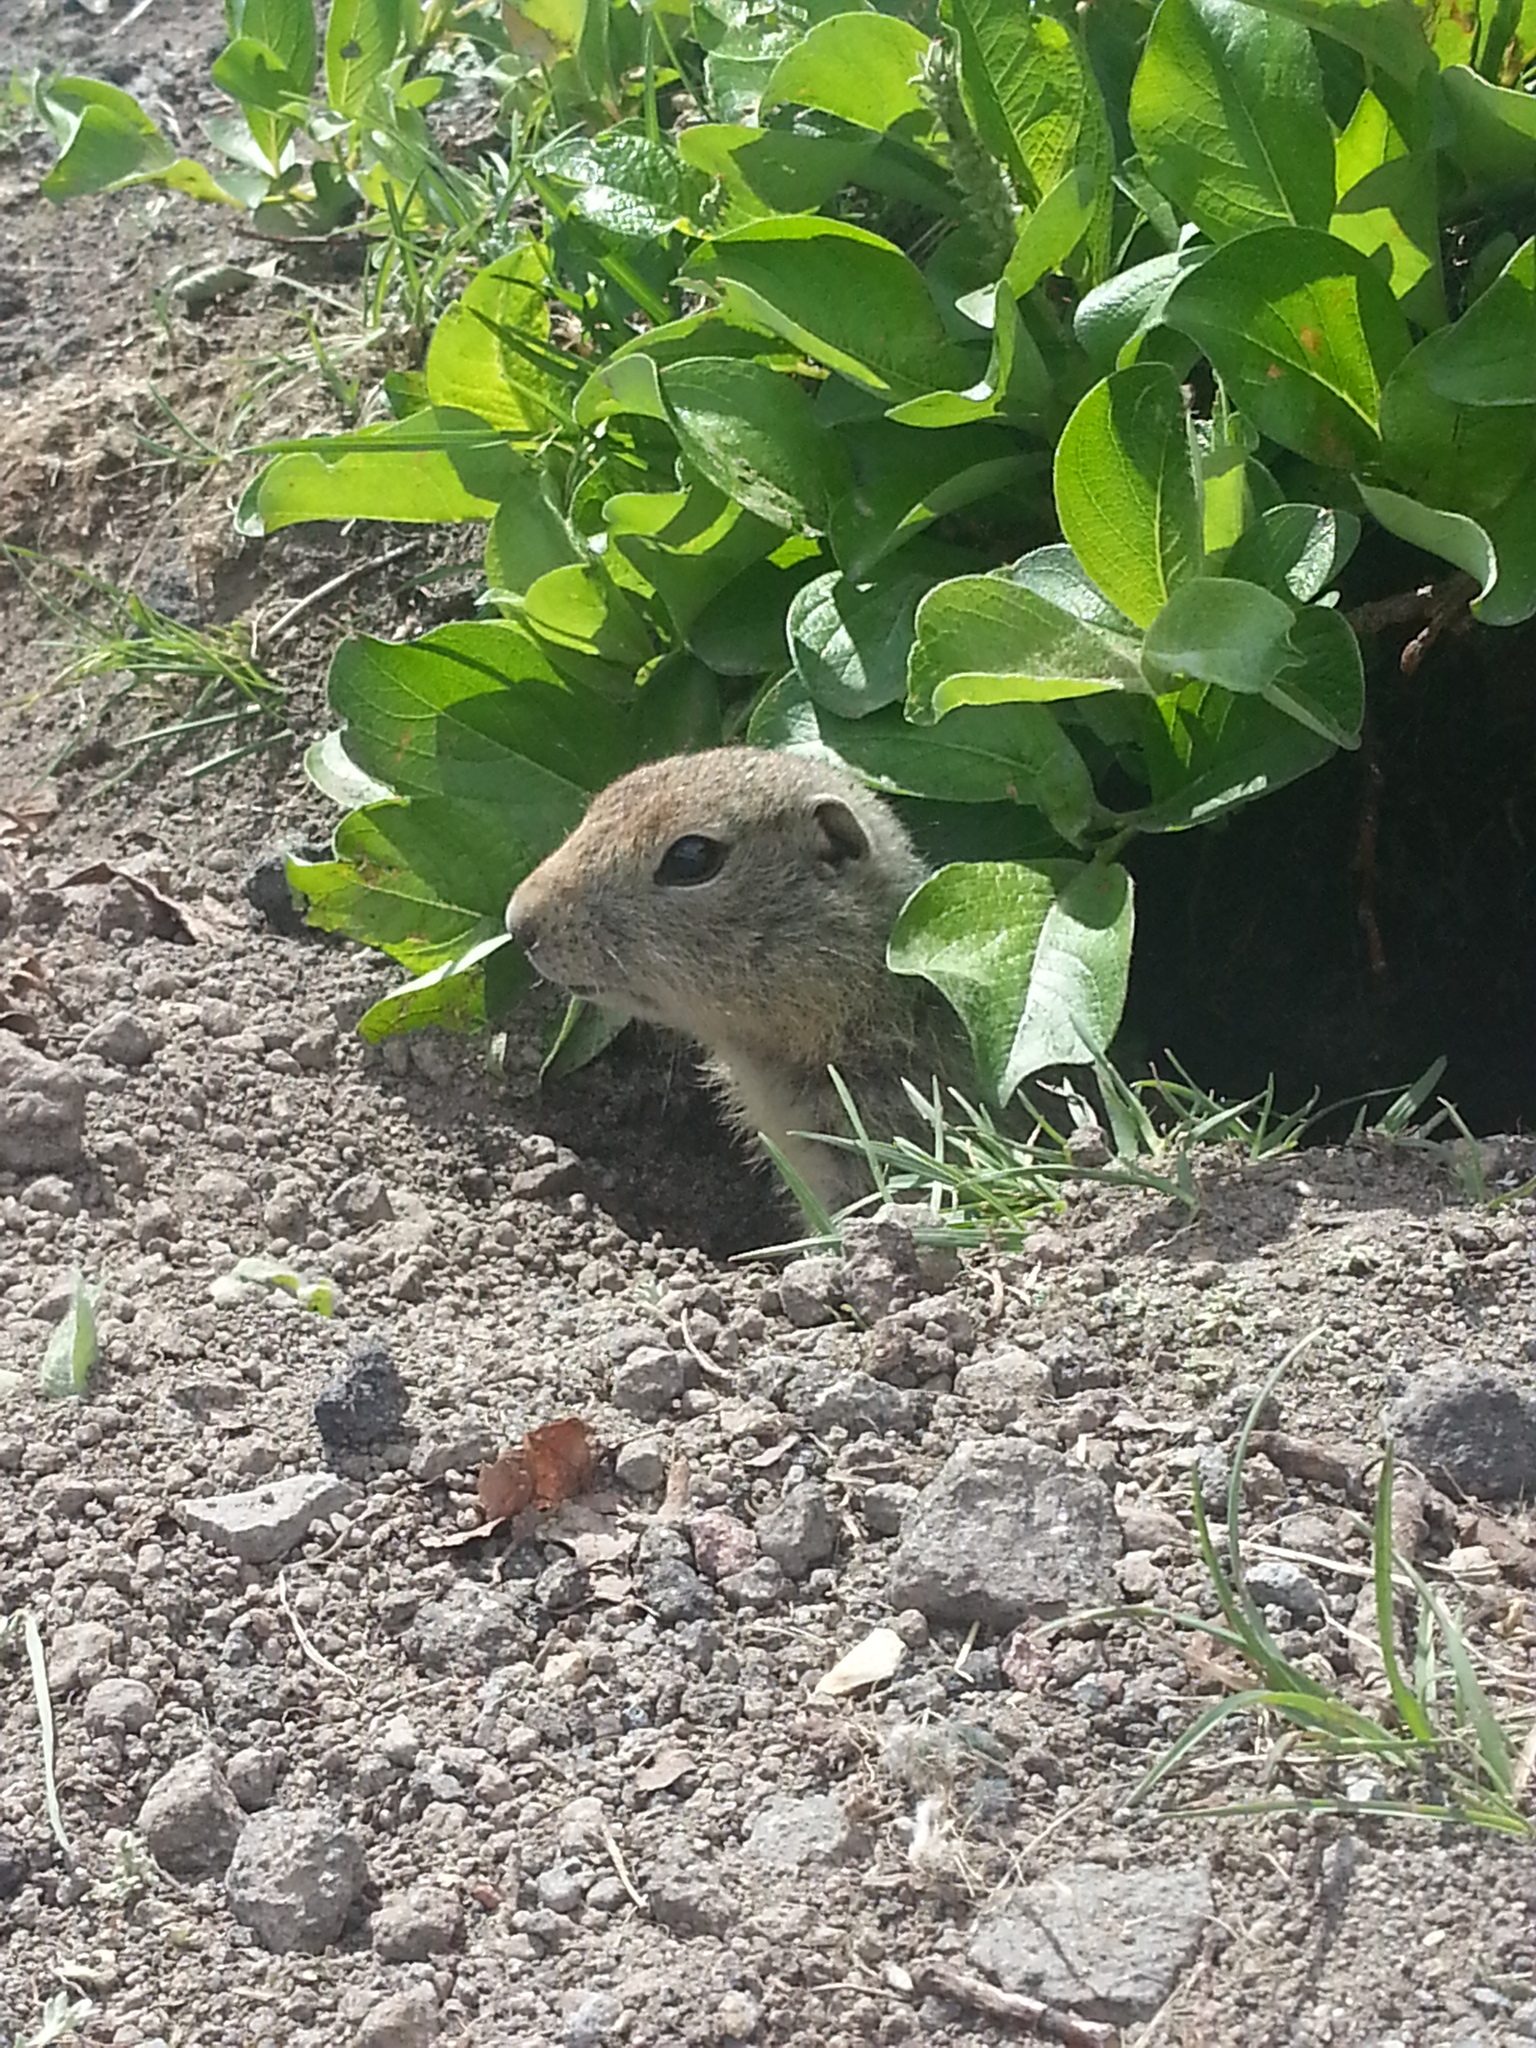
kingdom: Animalia
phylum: Chordata
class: Mammalia
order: Rodentia
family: Sciuridae
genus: Urocitellus
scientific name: Urocitellus parryii
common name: Arctic ground squirrel
